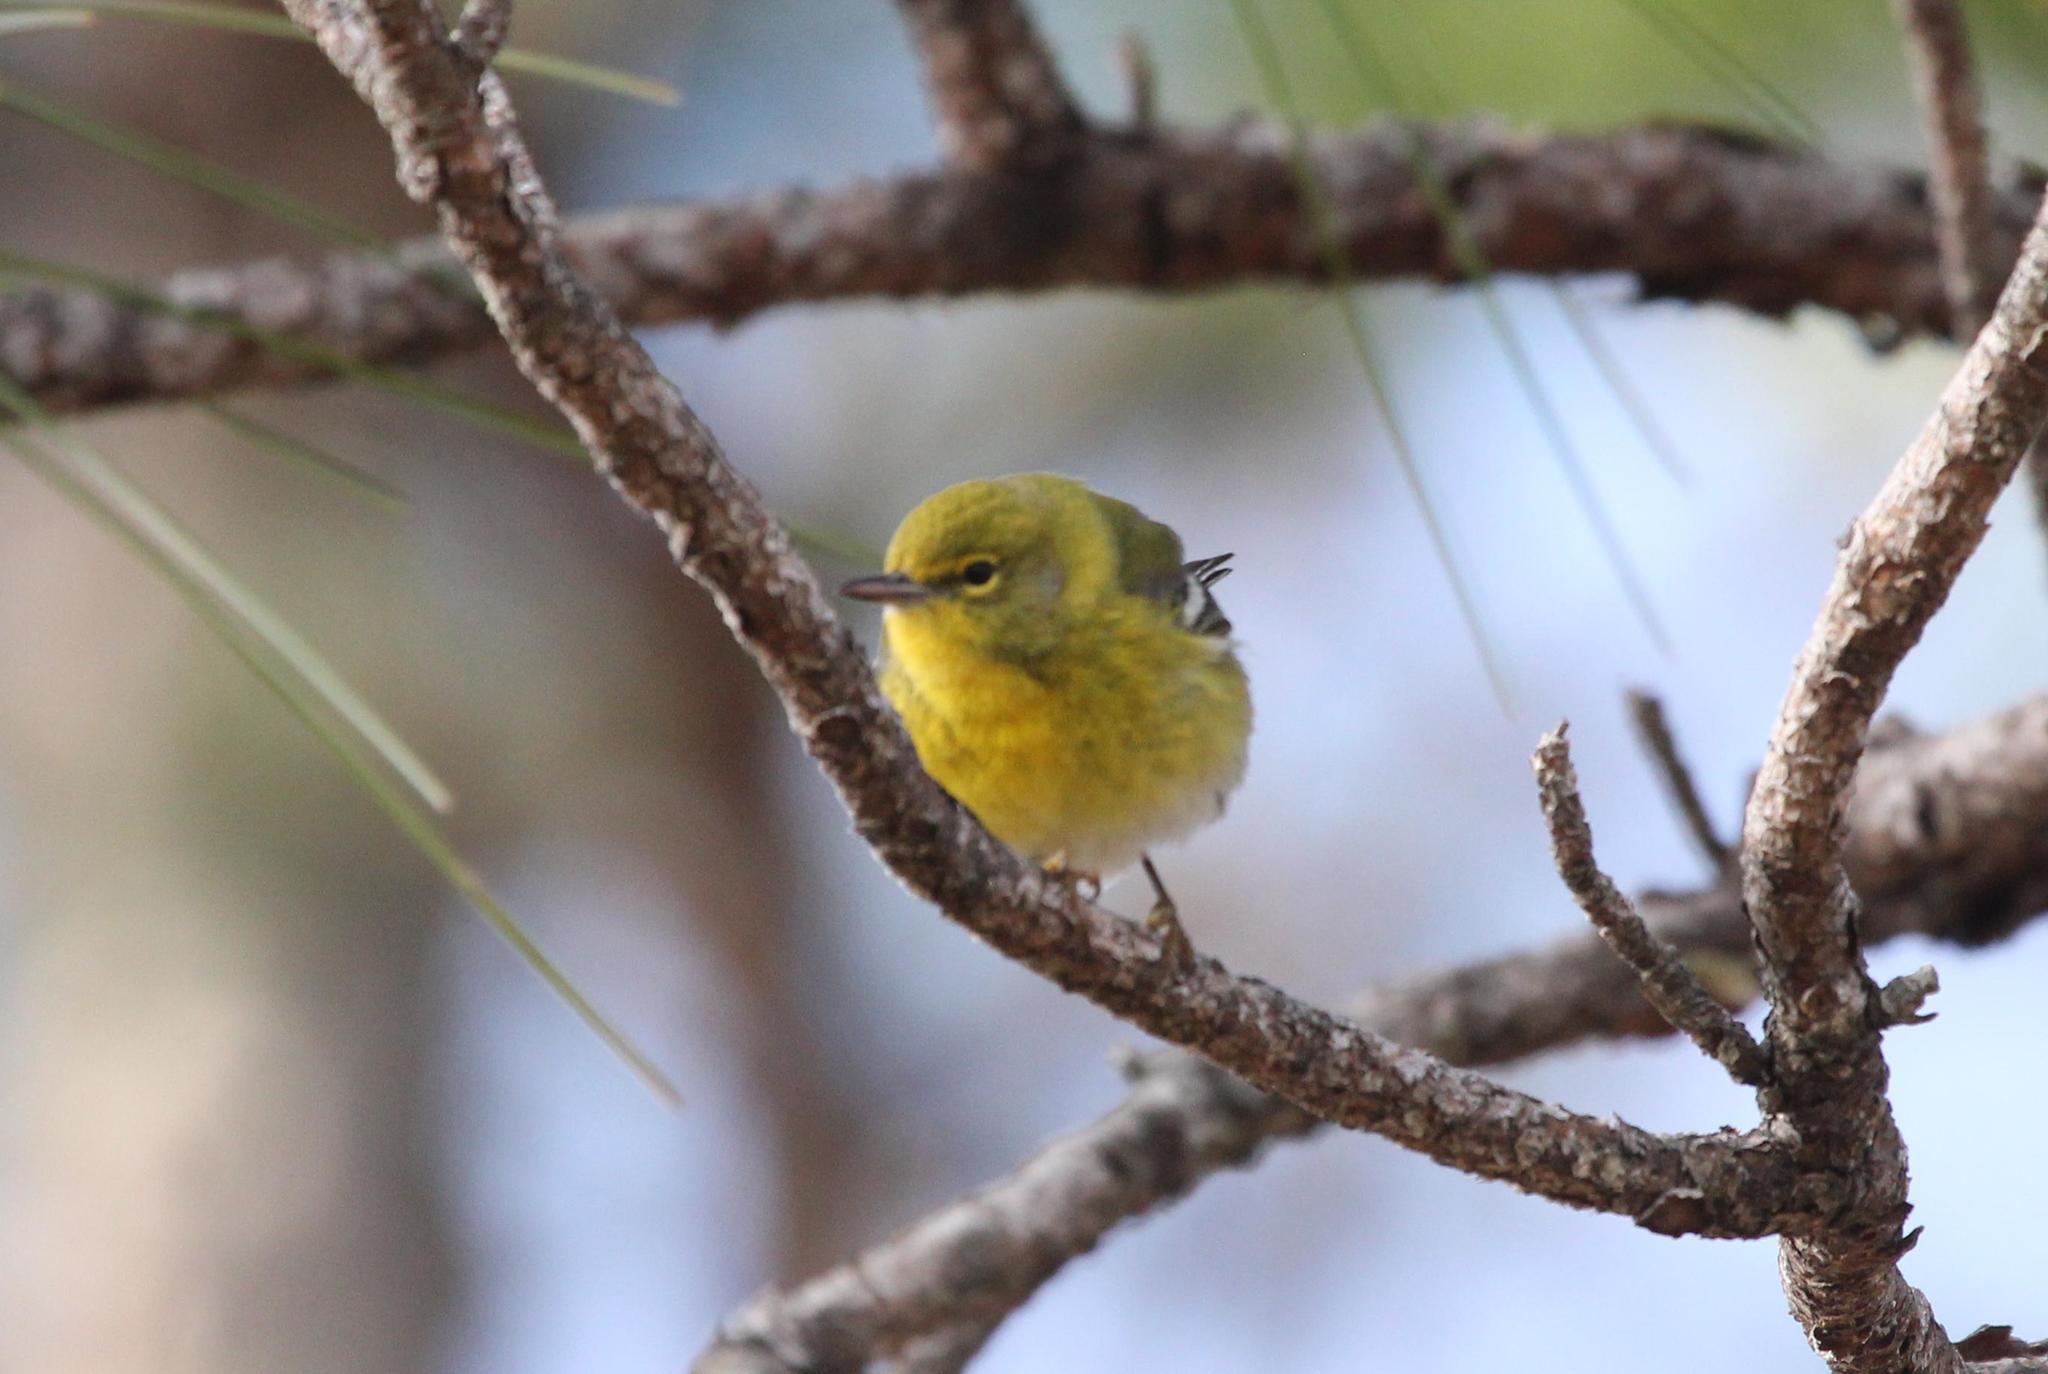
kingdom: Animalia
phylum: Chordata
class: Aves
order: Passeriformes
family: Parulidae
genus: Setophaga
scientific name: Setophaga pinus
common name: Pine warbler
